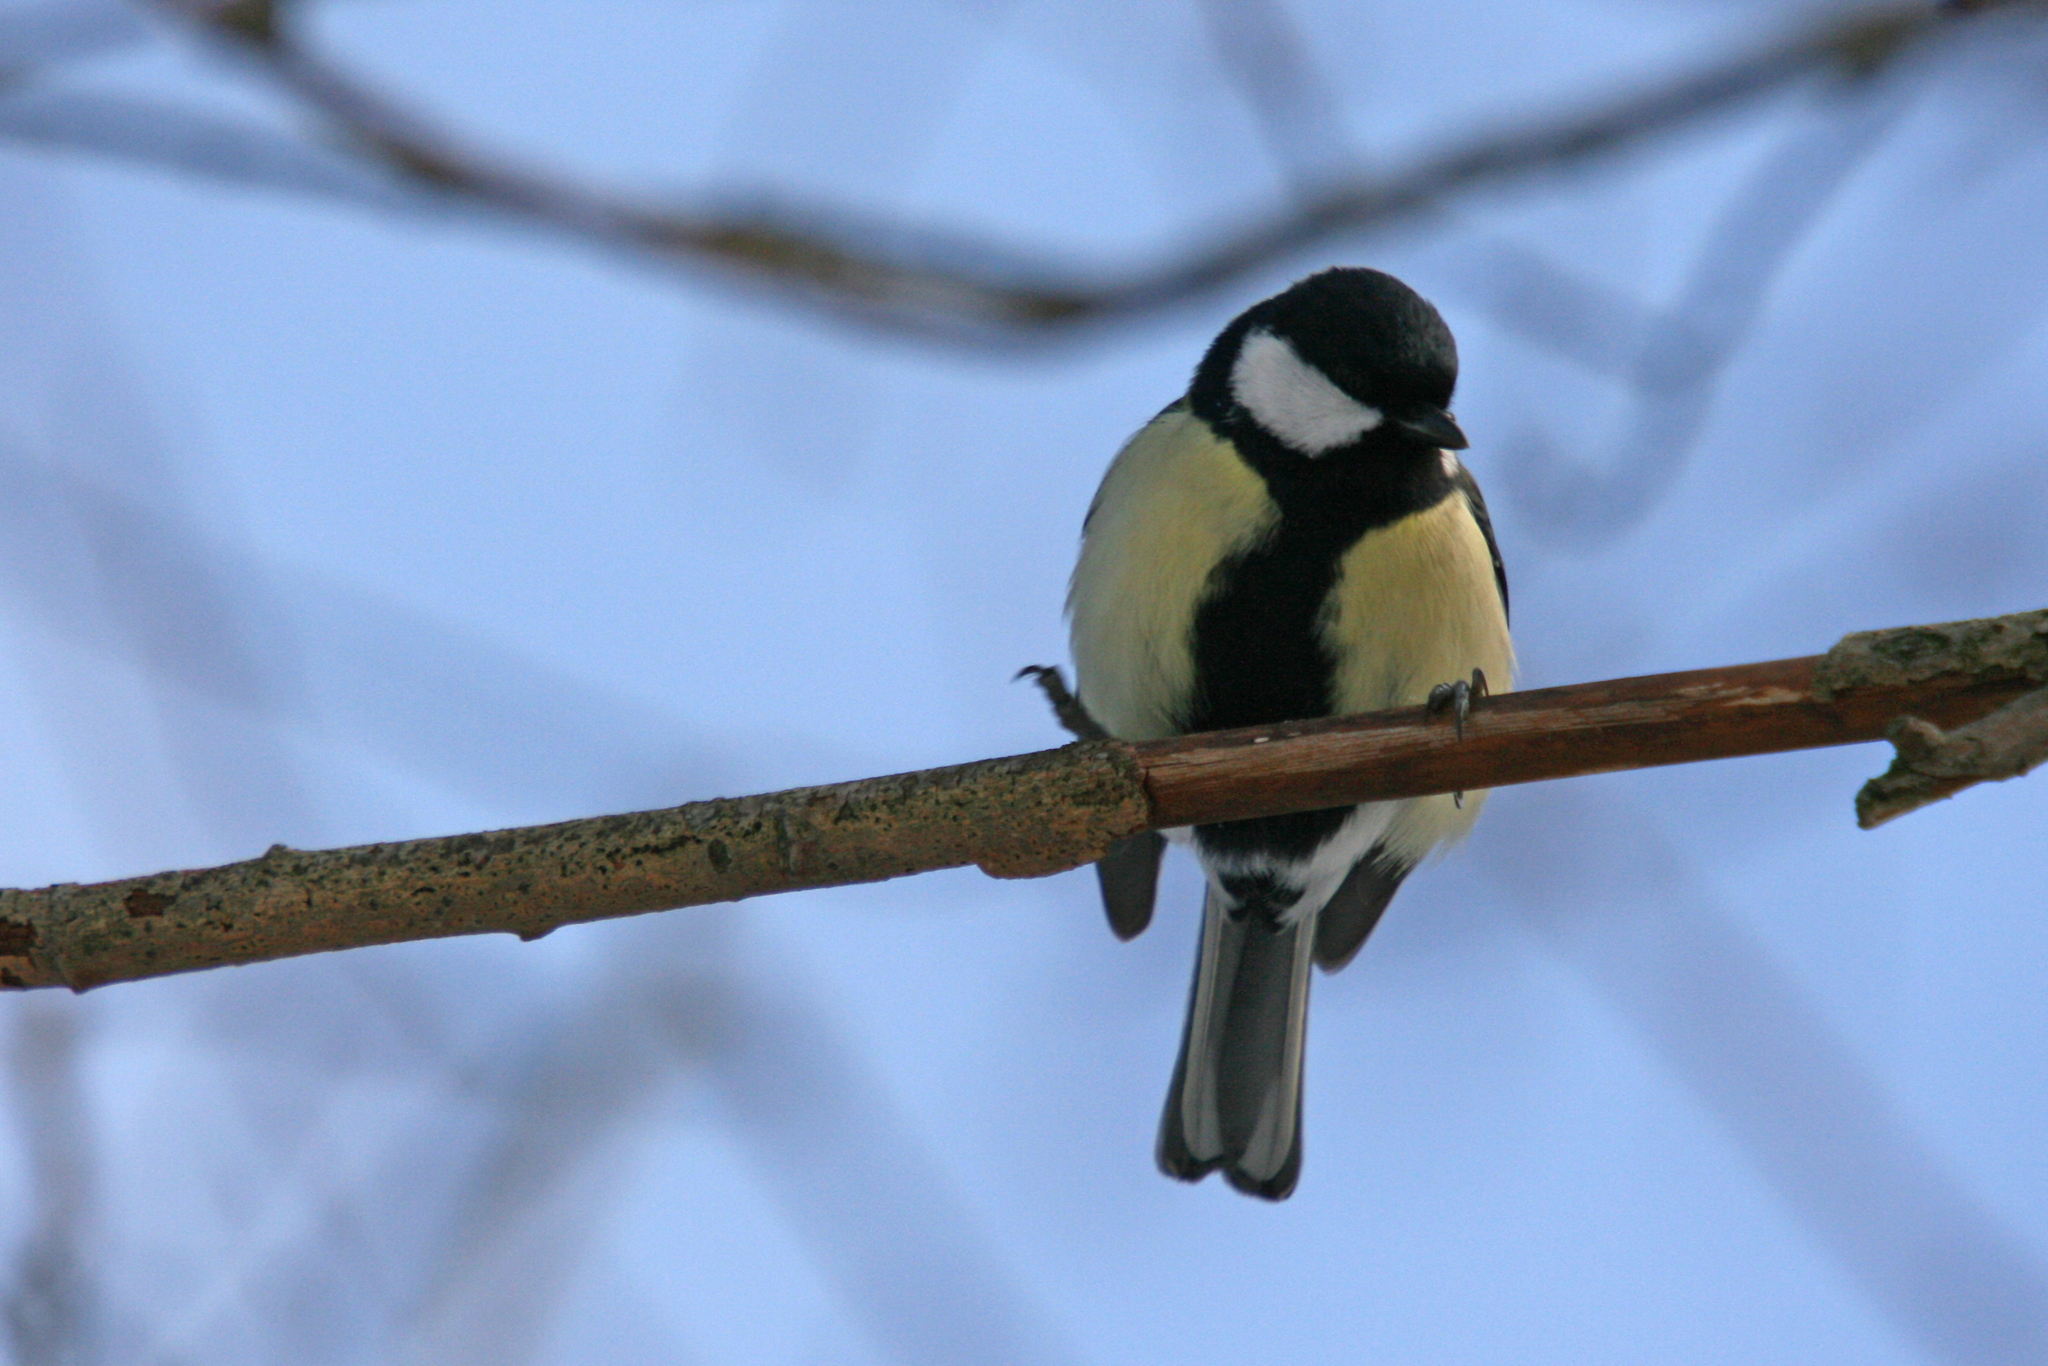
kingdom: Animalia
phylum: Chordata
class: Aves
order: Passeriformes
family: Paridae
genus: Parus
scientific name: Parus major
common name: Great tit
